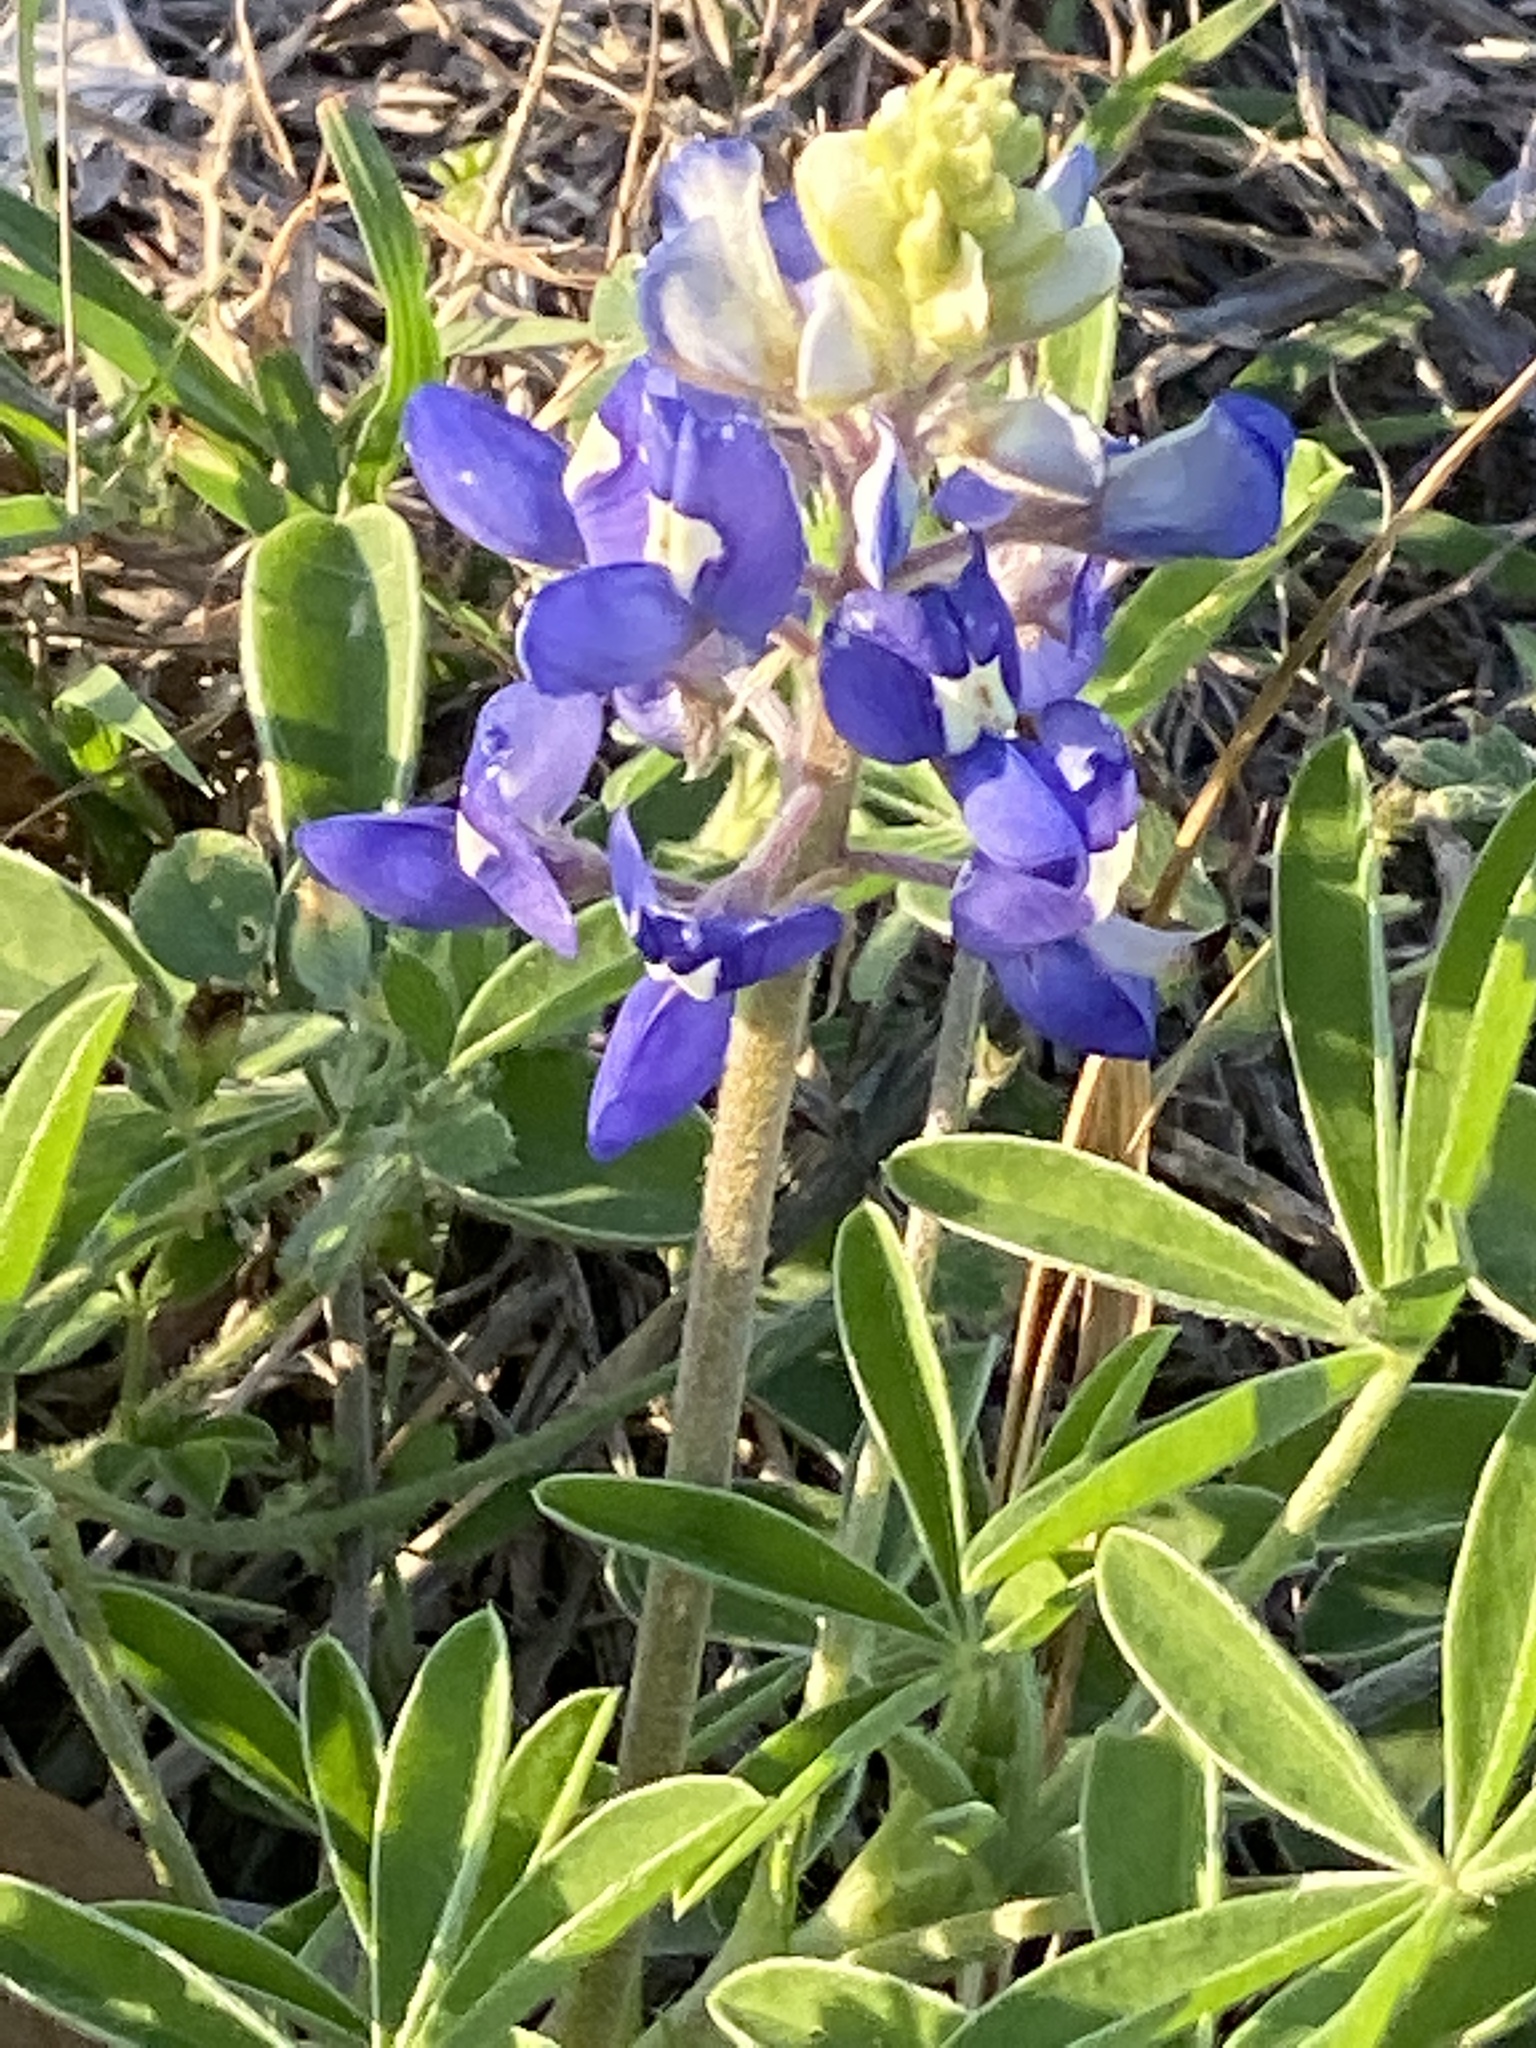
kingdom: Plantae
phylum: Tracheophyta
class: Magnoliopsida
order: Fabales
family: Fabaceae
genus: Lupinus
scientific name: Lupinus texensis
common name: Texas bluebonnet
